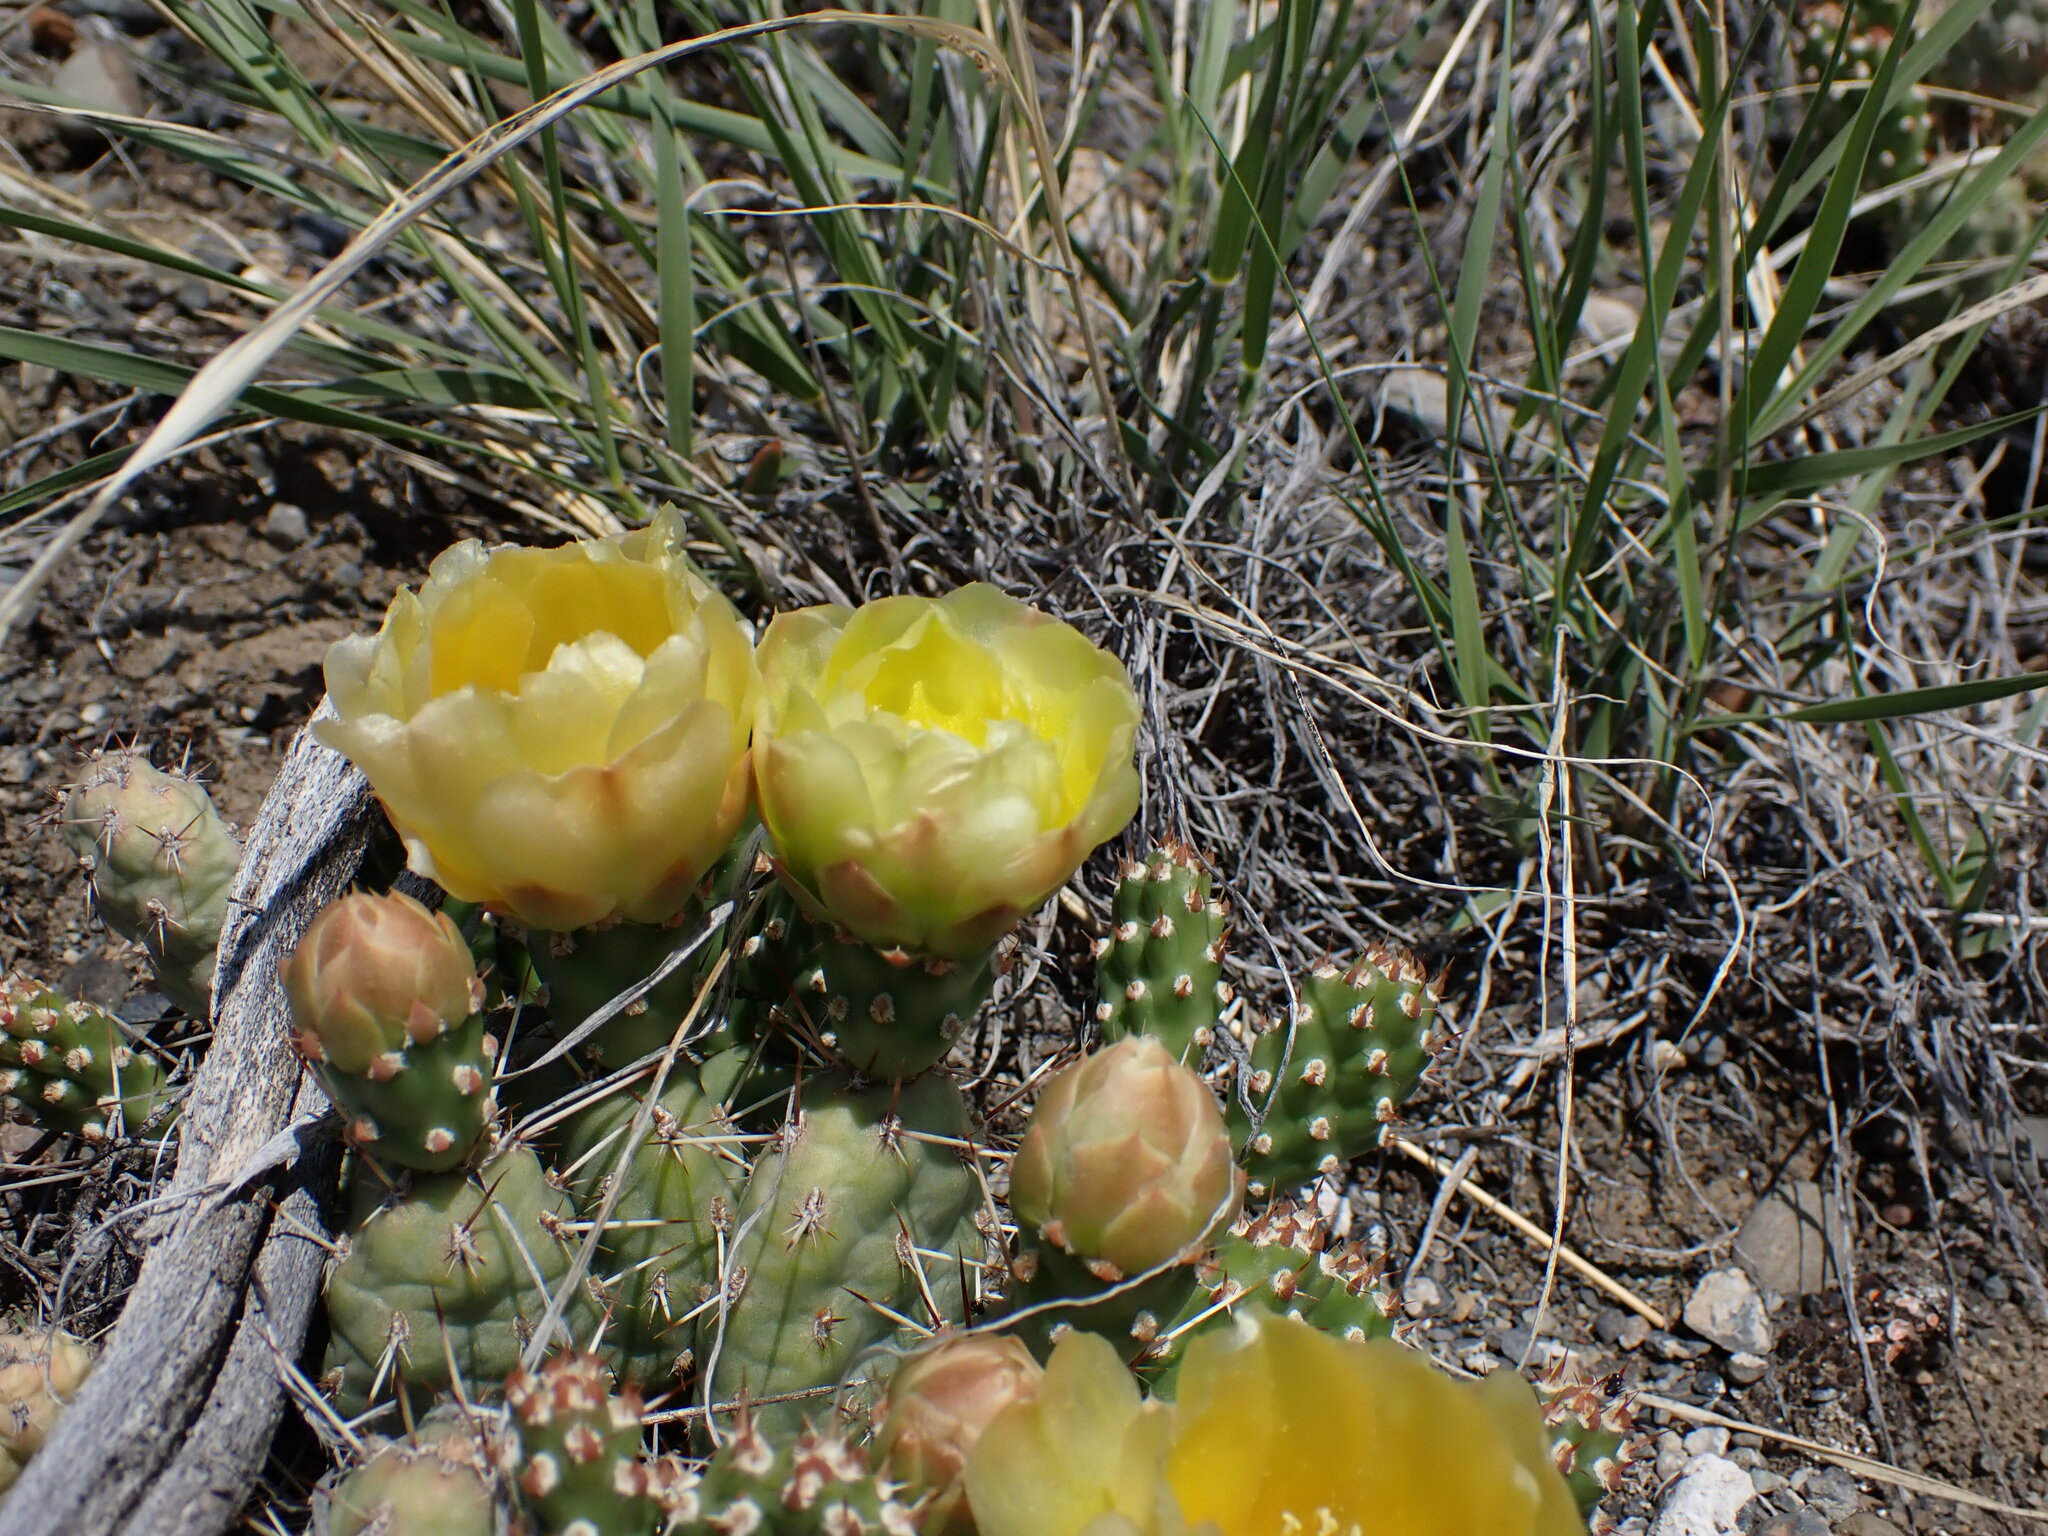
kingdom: Plantae
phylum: Tracheophyta
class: Magnoliopsida
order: Caryophyllales
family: Cactaceae
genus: Opuntia
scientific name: Opuntia fragilis
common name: Brittle cactus
